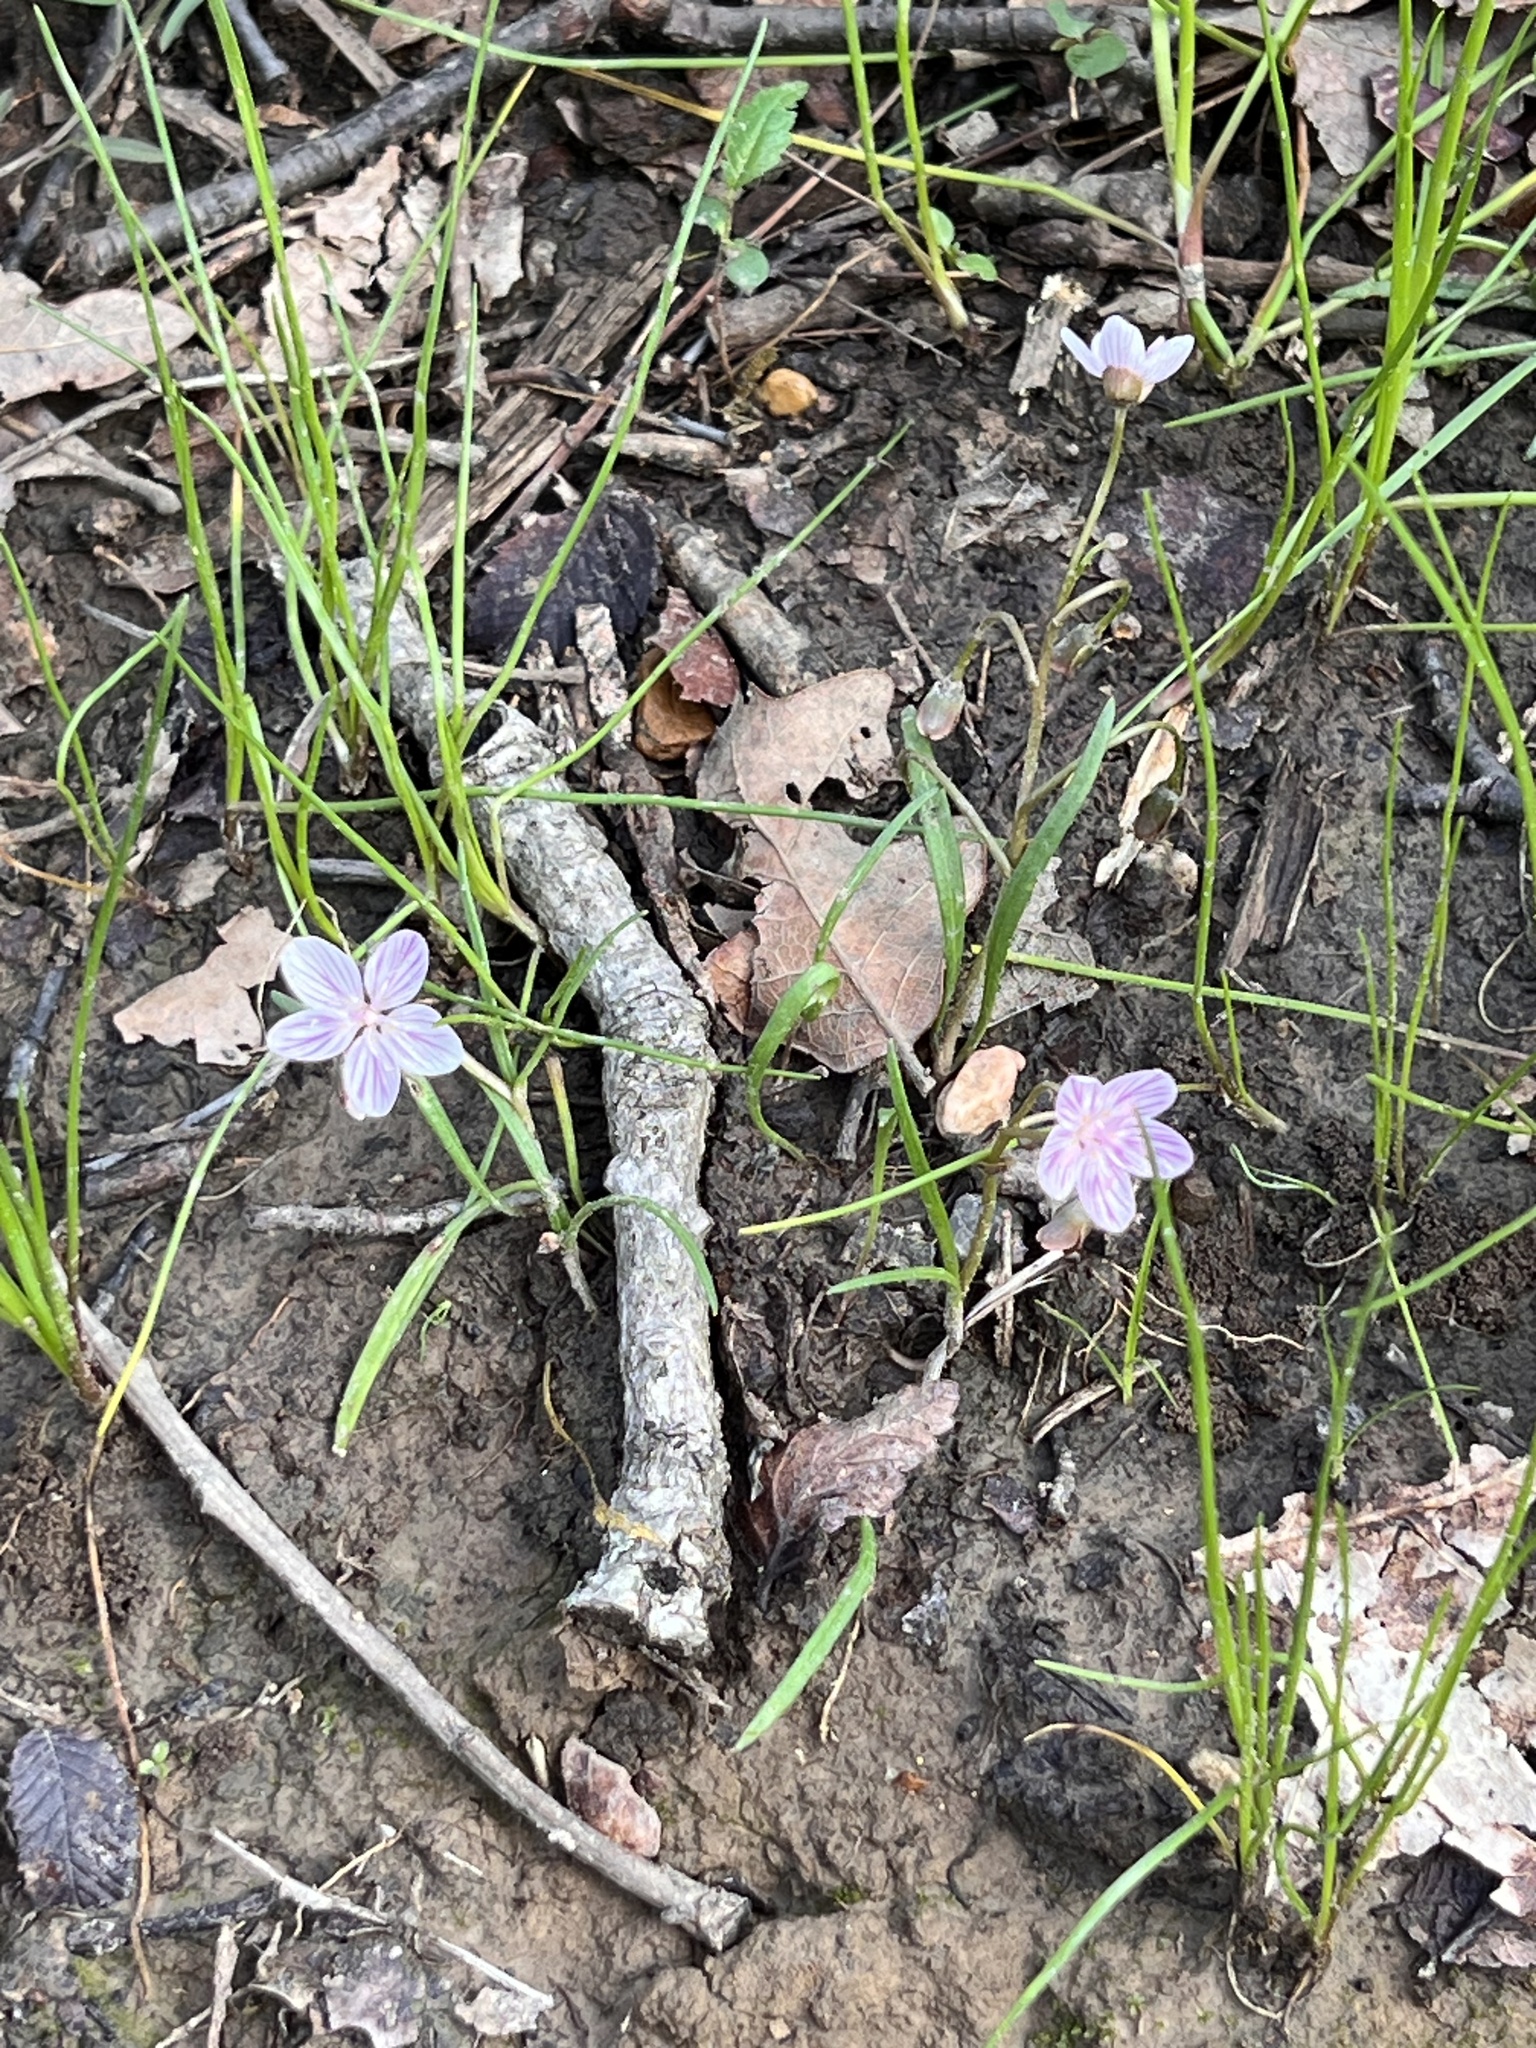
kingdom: Plantae
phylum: Tracheophyta
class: Magnoliopsida
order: Caryophyllales
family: Montiaceae
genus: Claytonia
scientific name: Claytonia virginica
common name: Virginia springbeauty
